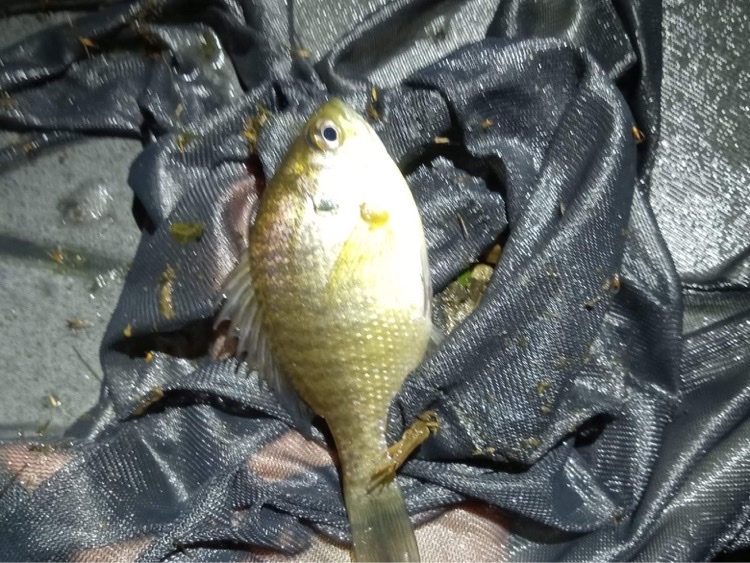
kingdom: Animalia
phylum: Chordata
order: Perciformes
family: Centrarchidae
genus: Lepomis
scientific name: Lepomis macrochirus
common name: Bluegill
